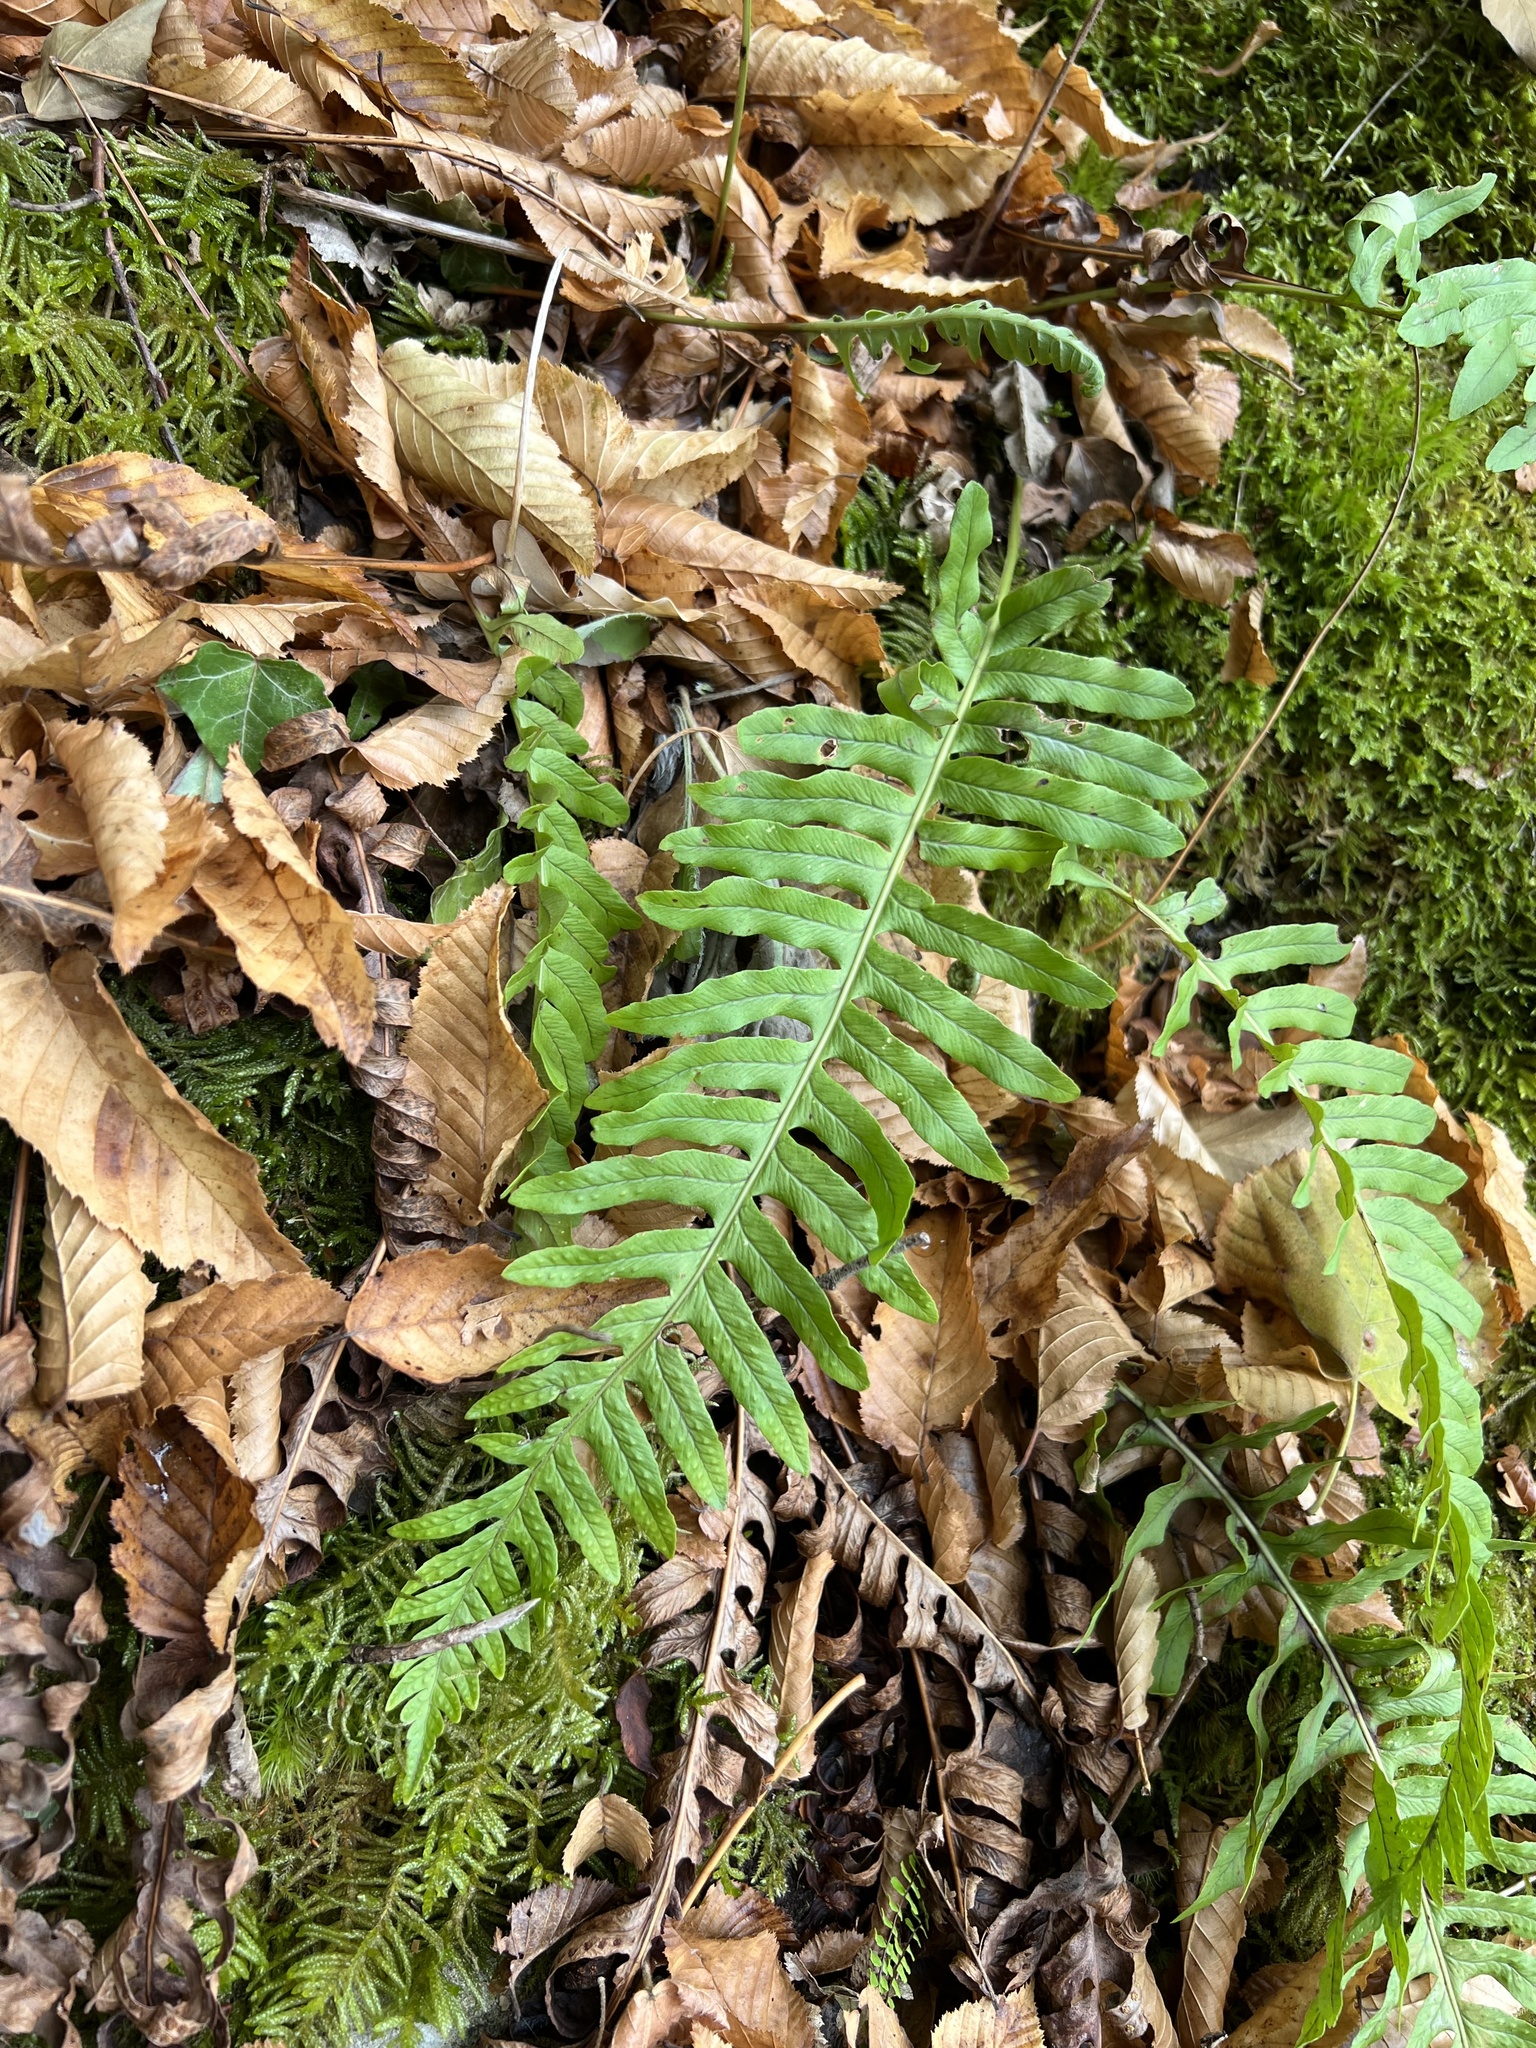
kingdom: Plantae
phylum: Tracheophyta
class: Polypodiopsida
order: Polypodiales
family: Polypodiaceae
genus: Polypodium
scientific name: Polypodium
